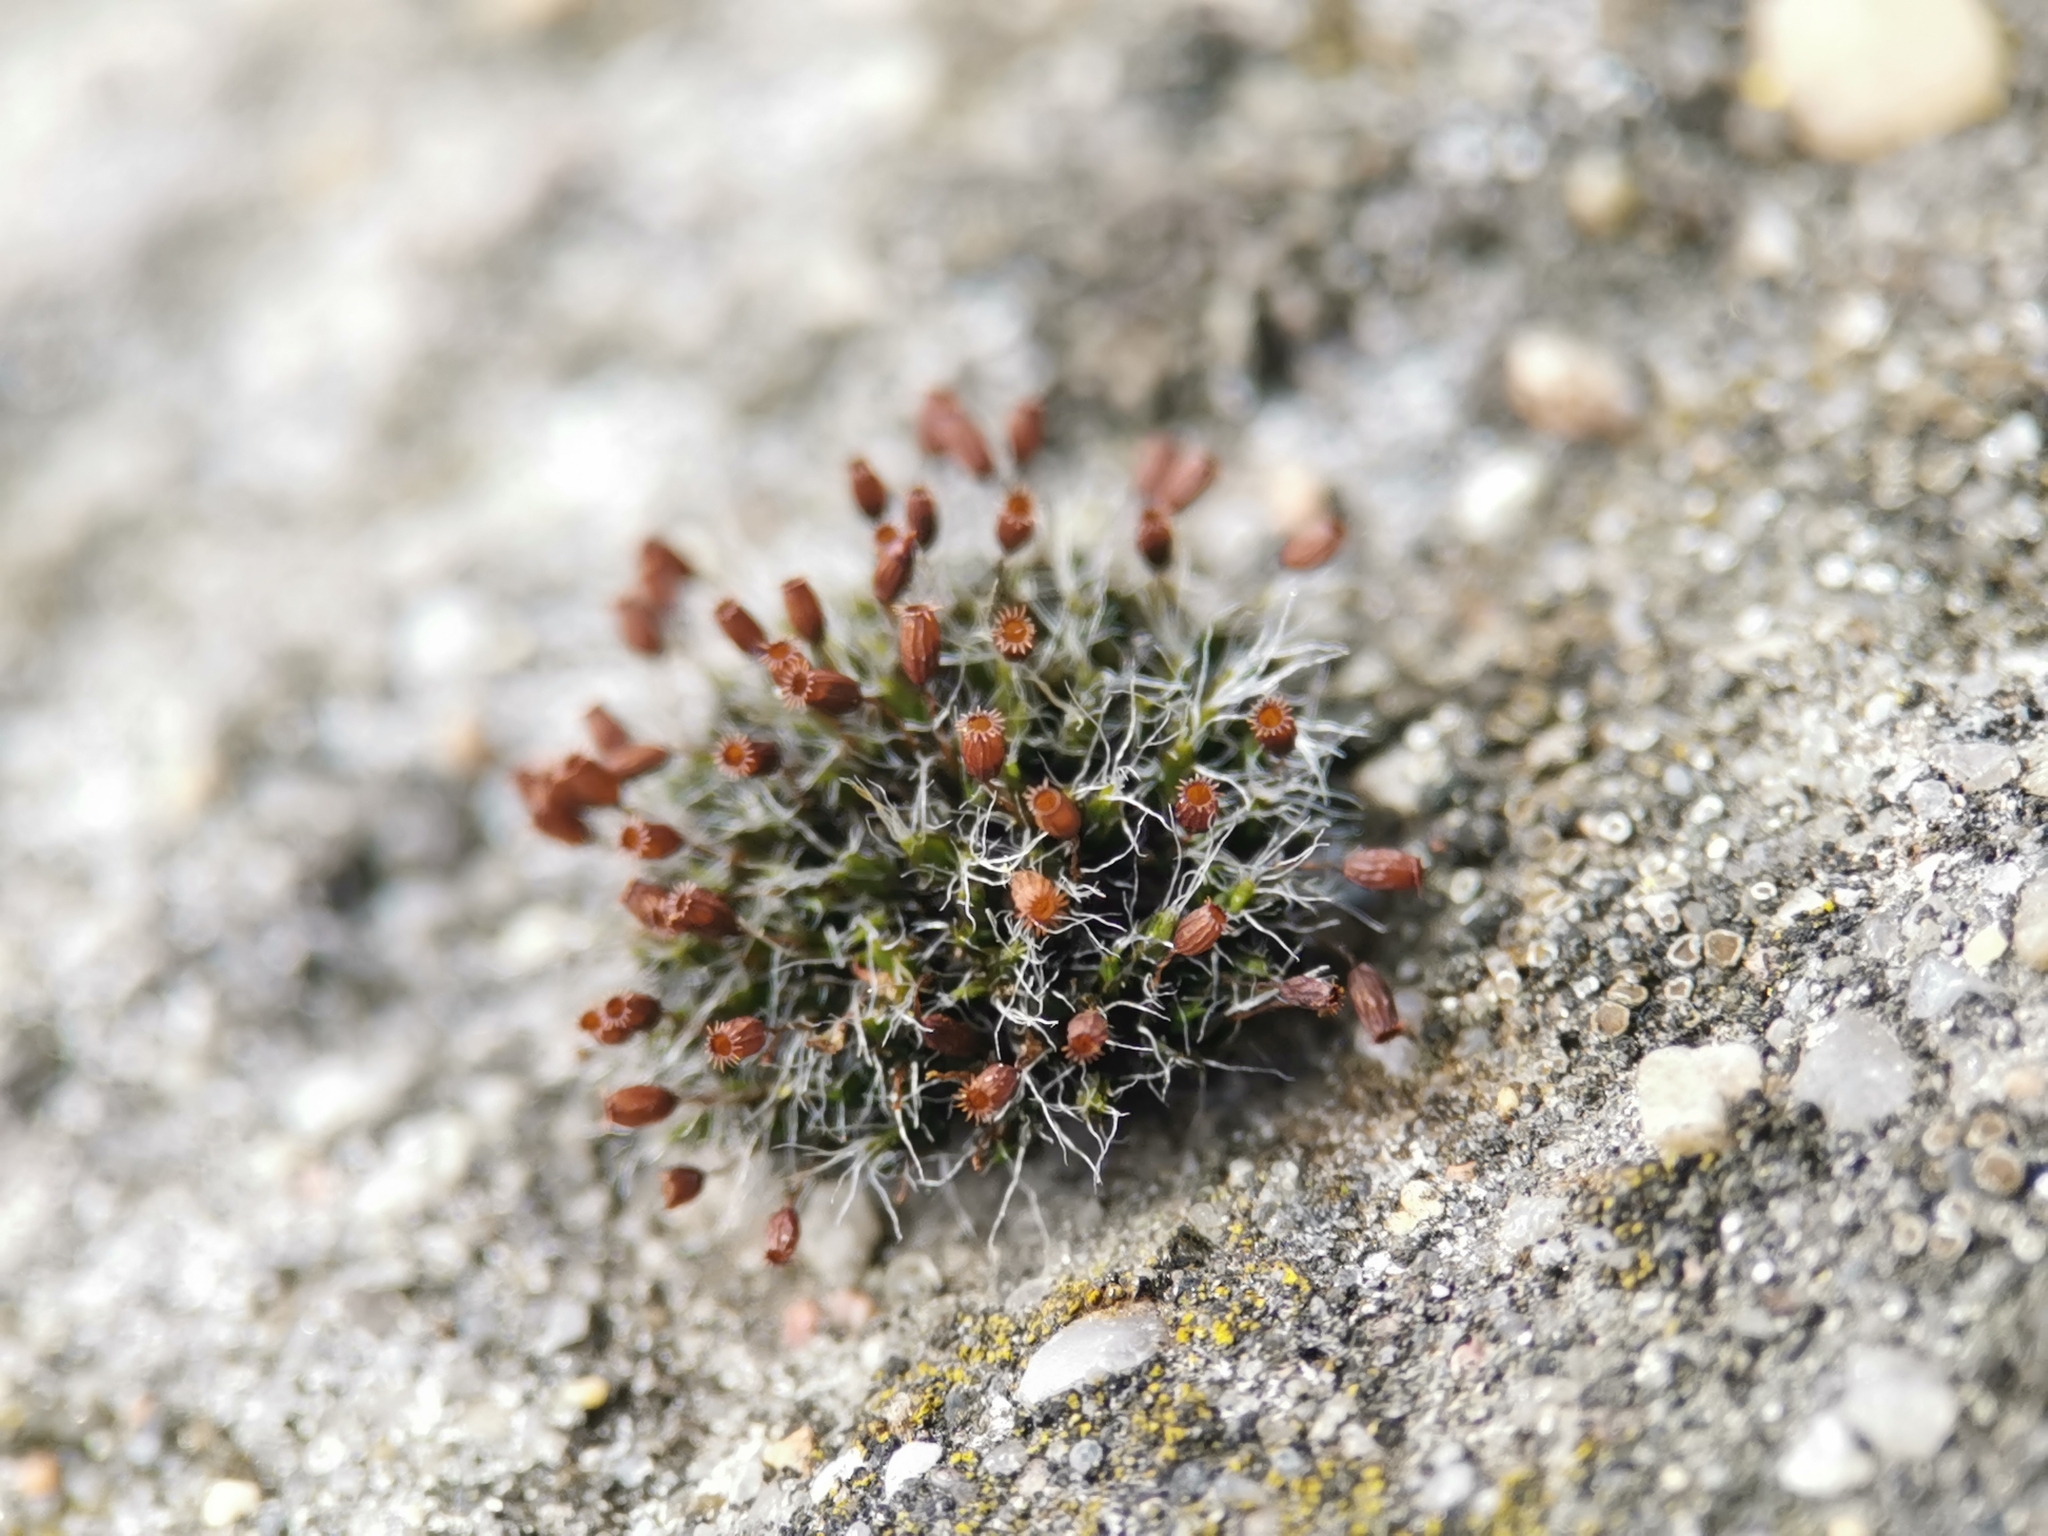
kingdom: Plantae
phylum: Bryophyta
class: Bryopsida
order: Grimmiales
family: Grimmiaceae
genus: Grimmia
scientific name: Grimmia pulvinata
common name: Grey-cushioned grimmia
